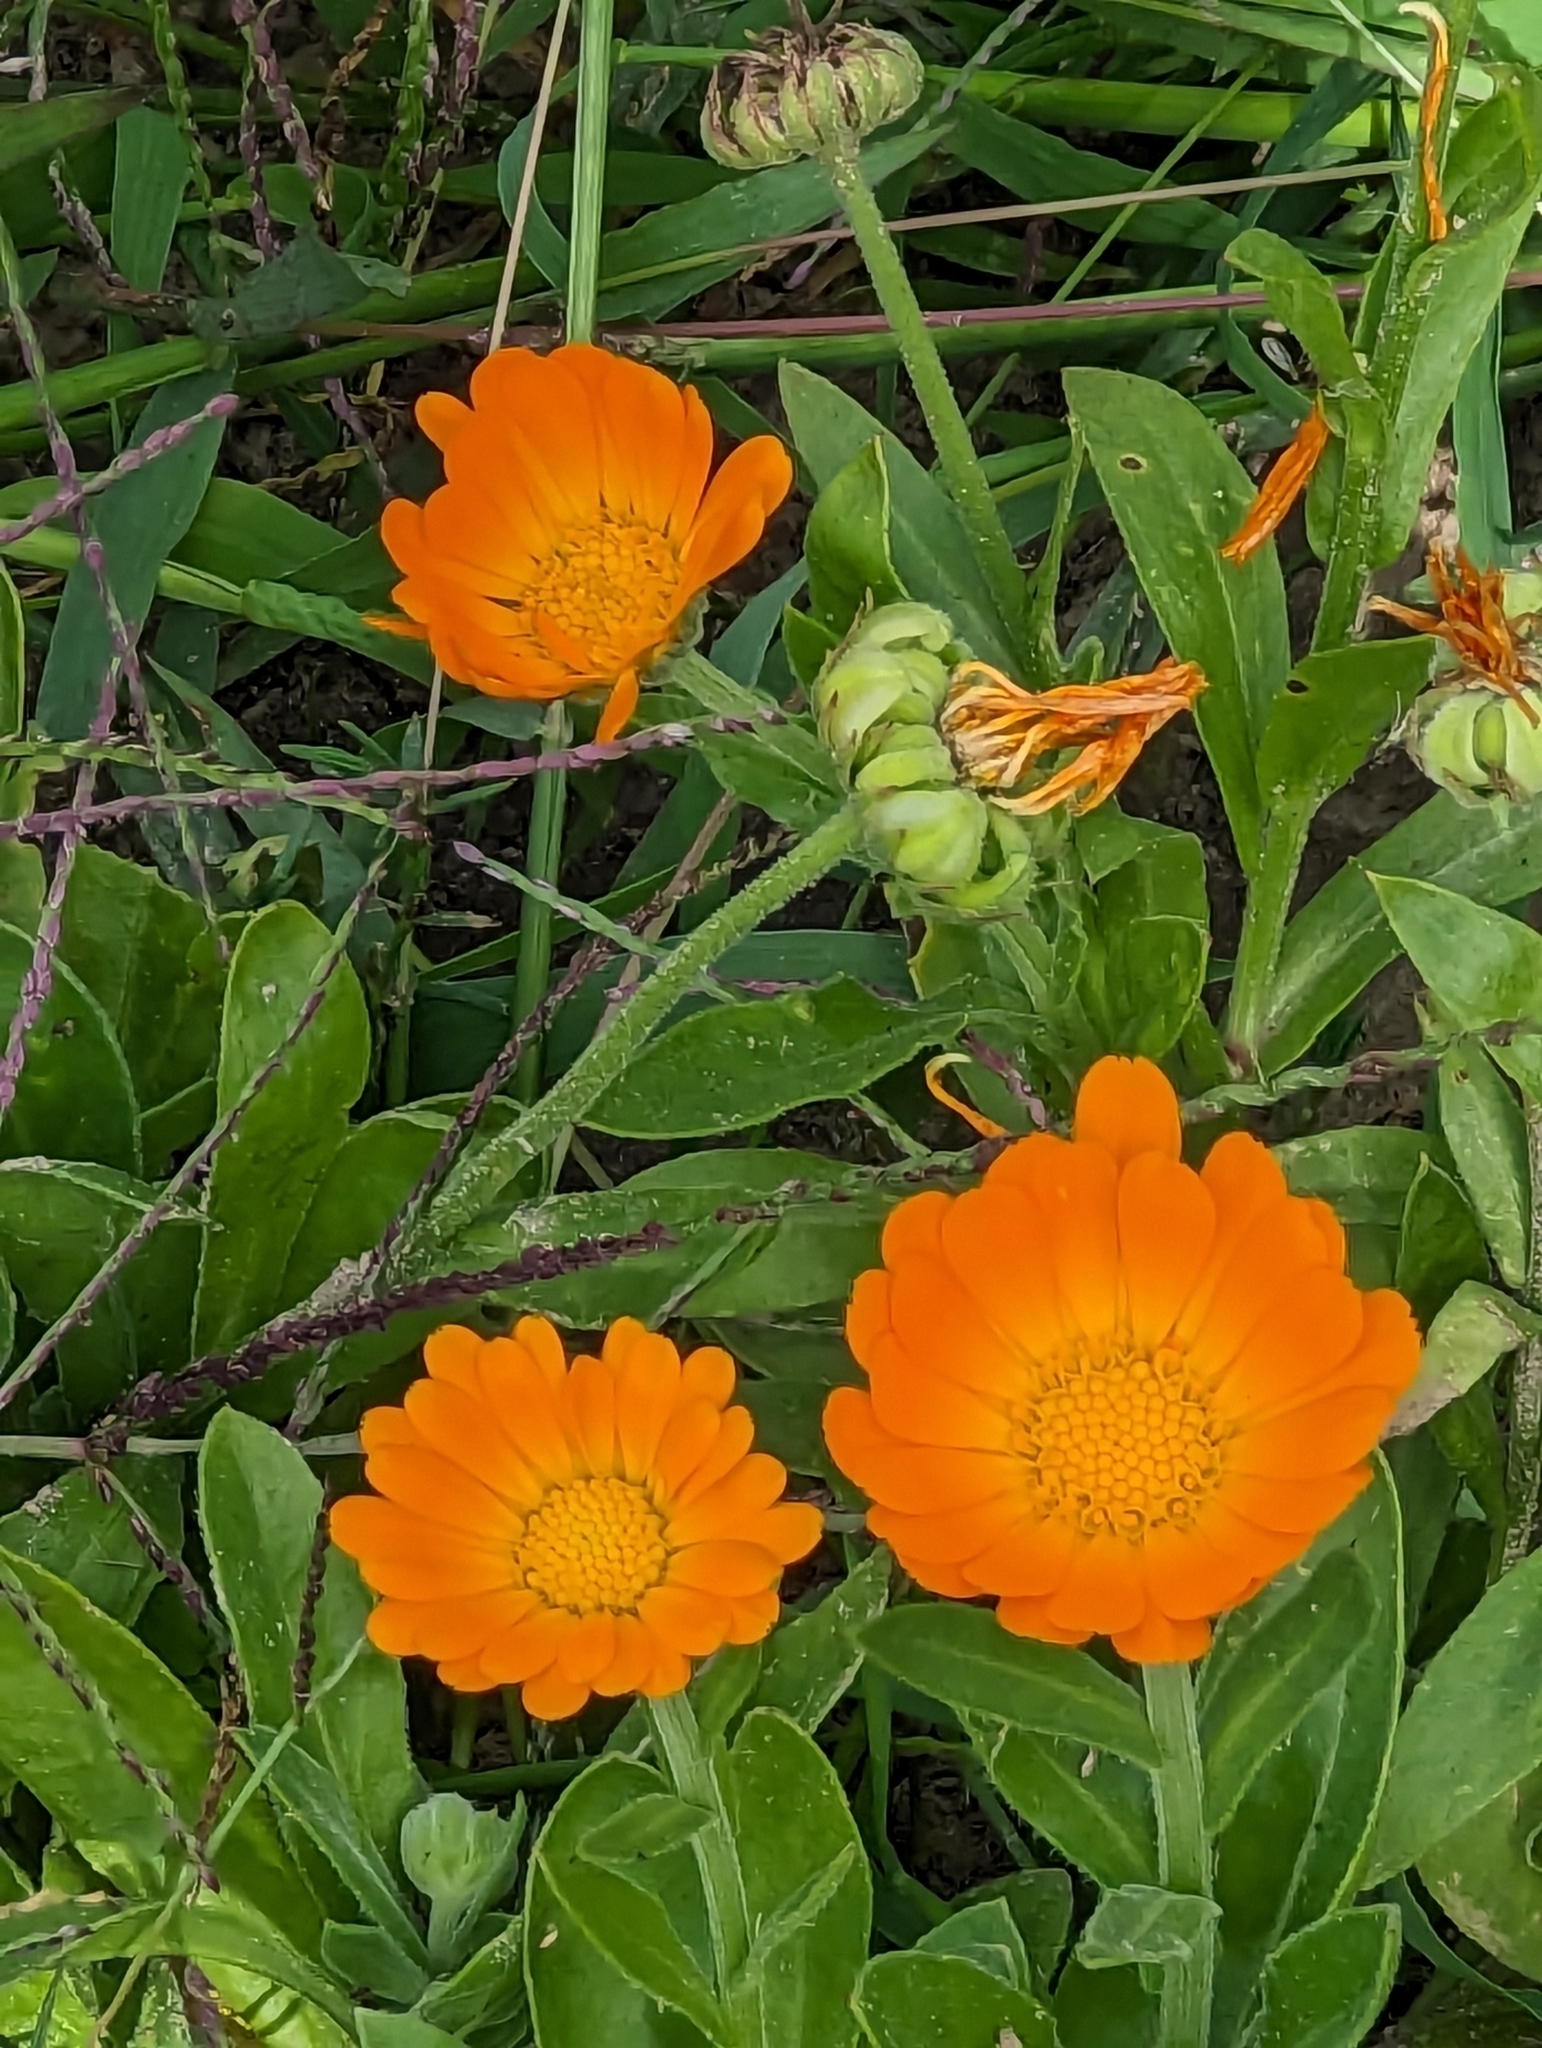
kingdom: Plantae
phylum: Tracheophyta
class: Magnoliopsida
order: Asterales
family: Asteraceae
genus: Calendula
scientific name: Calendula officinalis
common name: Pot marigold
